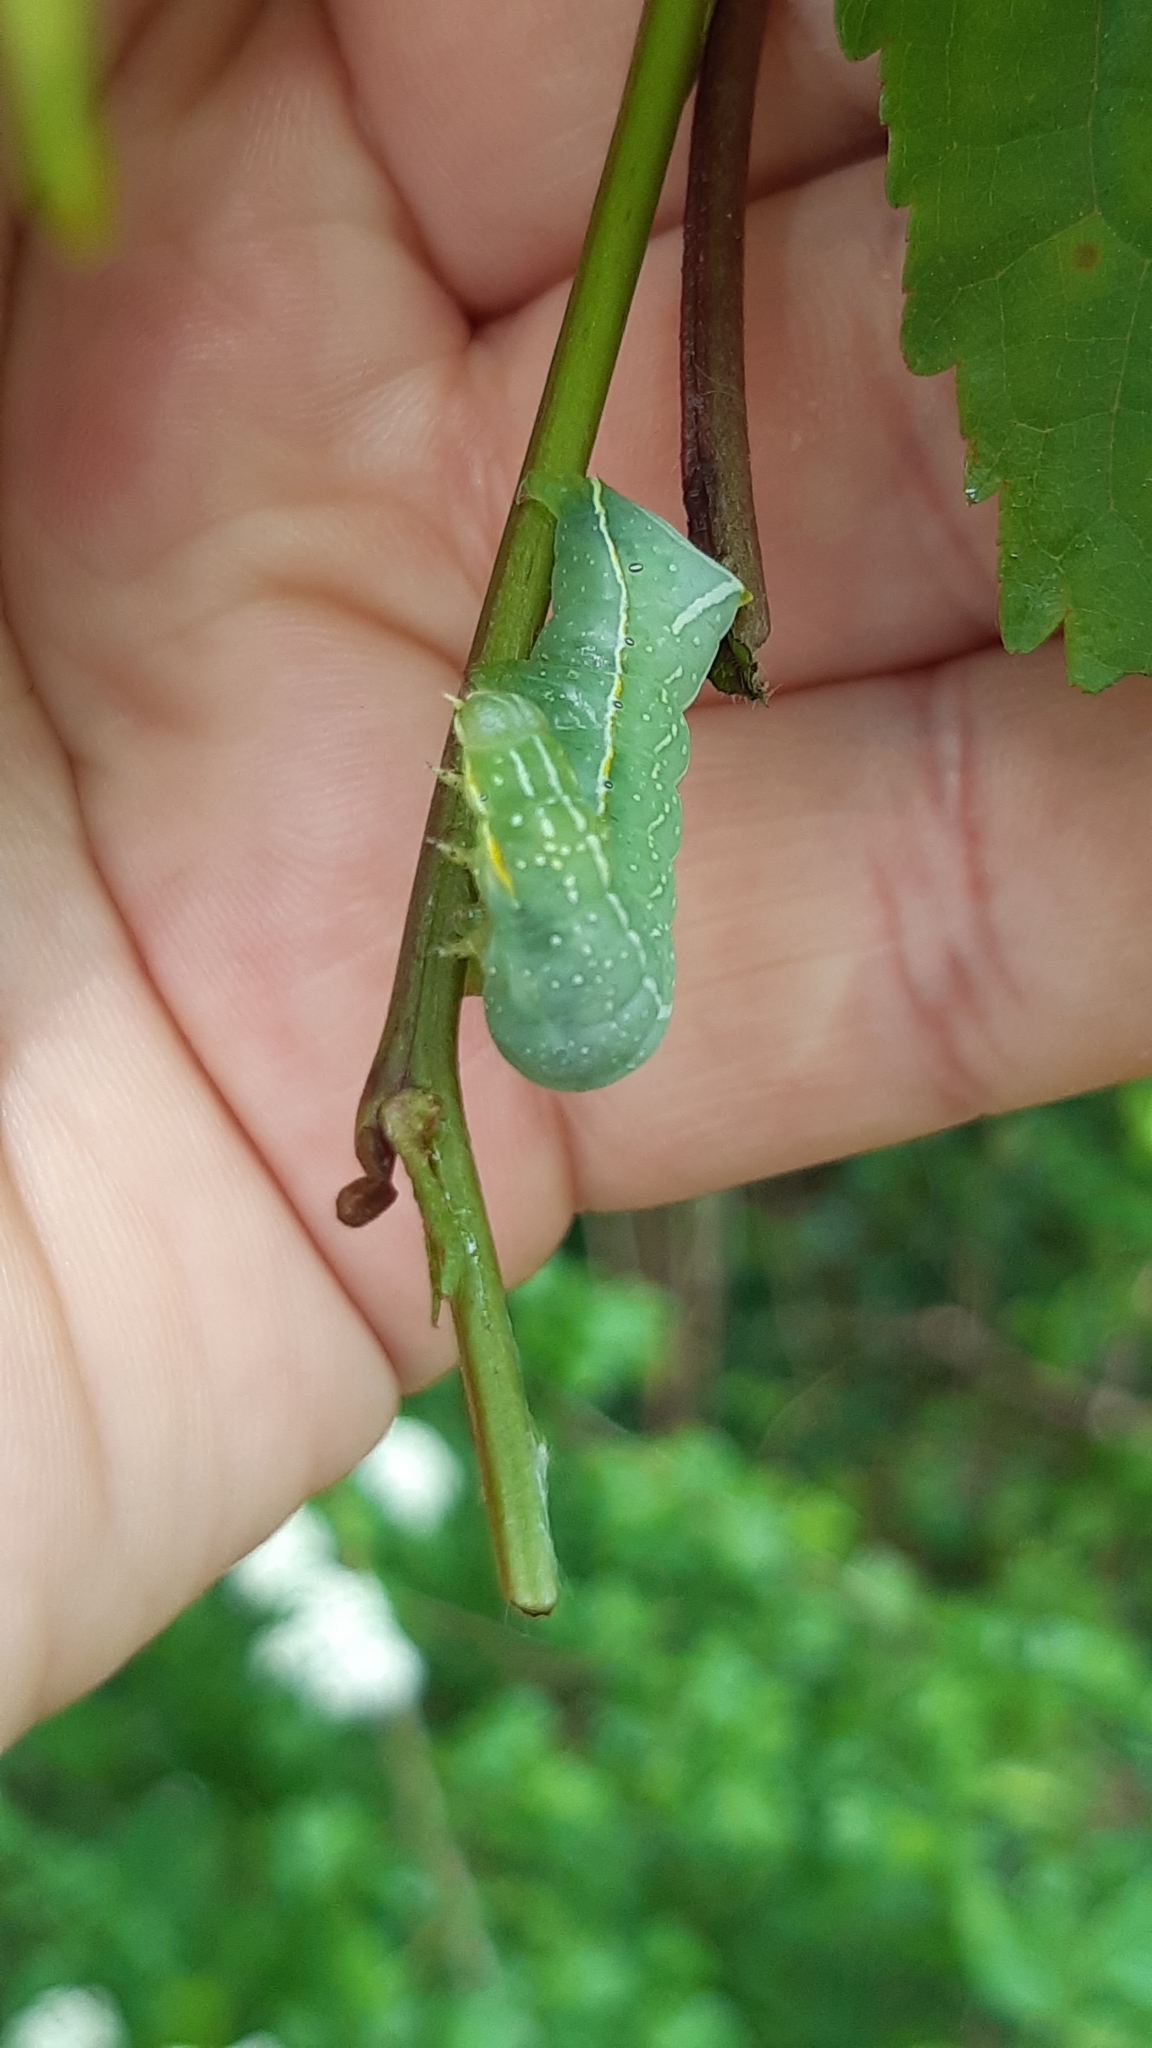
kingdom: Animalia
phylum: Arthropoda
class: Insecta
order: Lepidoptera
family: Noctuidae
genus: Amphipyra
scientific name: Amphipyra pyramidea
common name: Copper underwing
